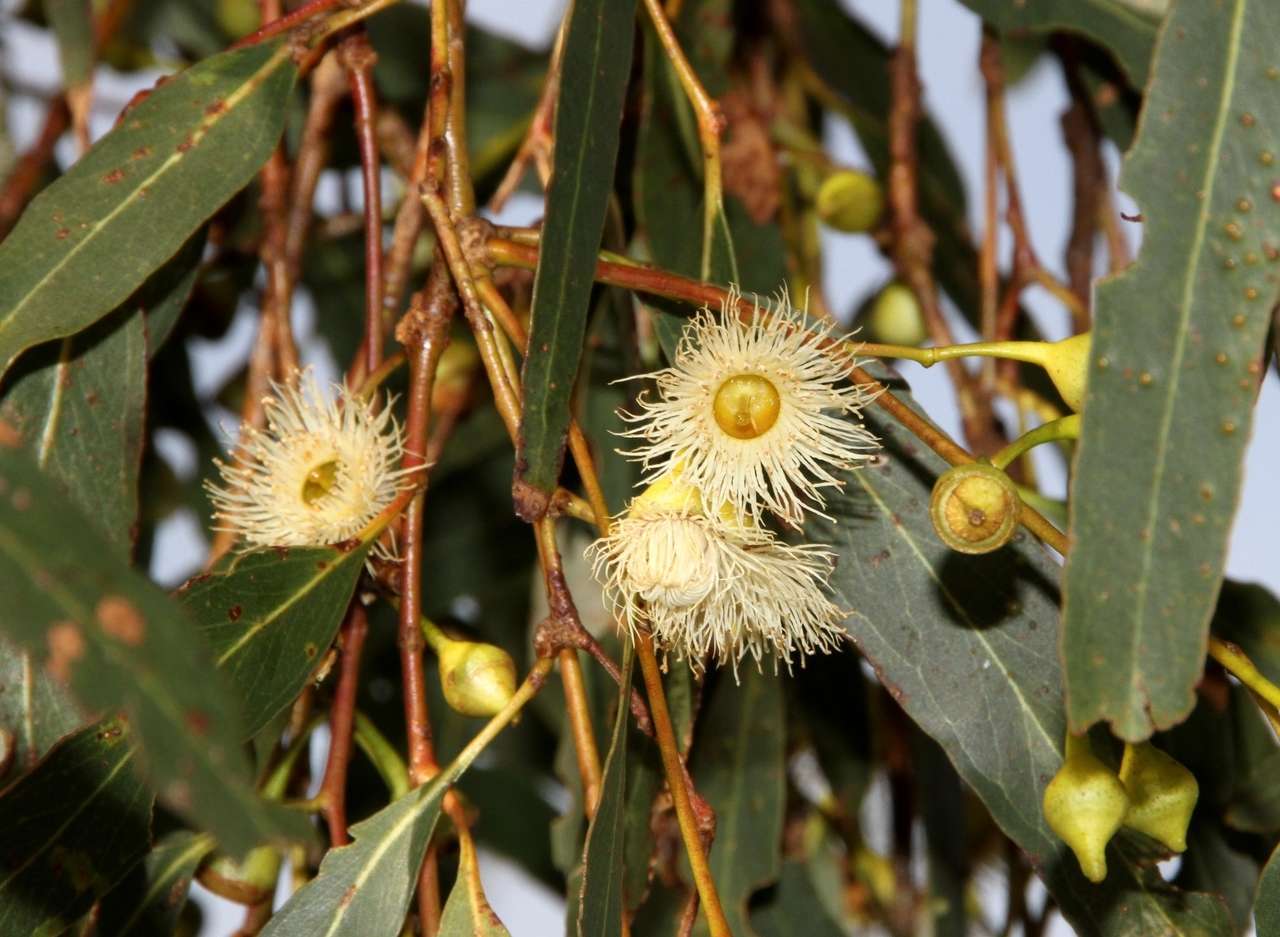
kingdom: Plantae
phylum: Tracheophyta
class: Magnoliopsida
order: Myrtales
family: Myrtaceae
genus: Eucalyptus
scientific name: Eucalyptus leucoxylon
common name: Blue gum
